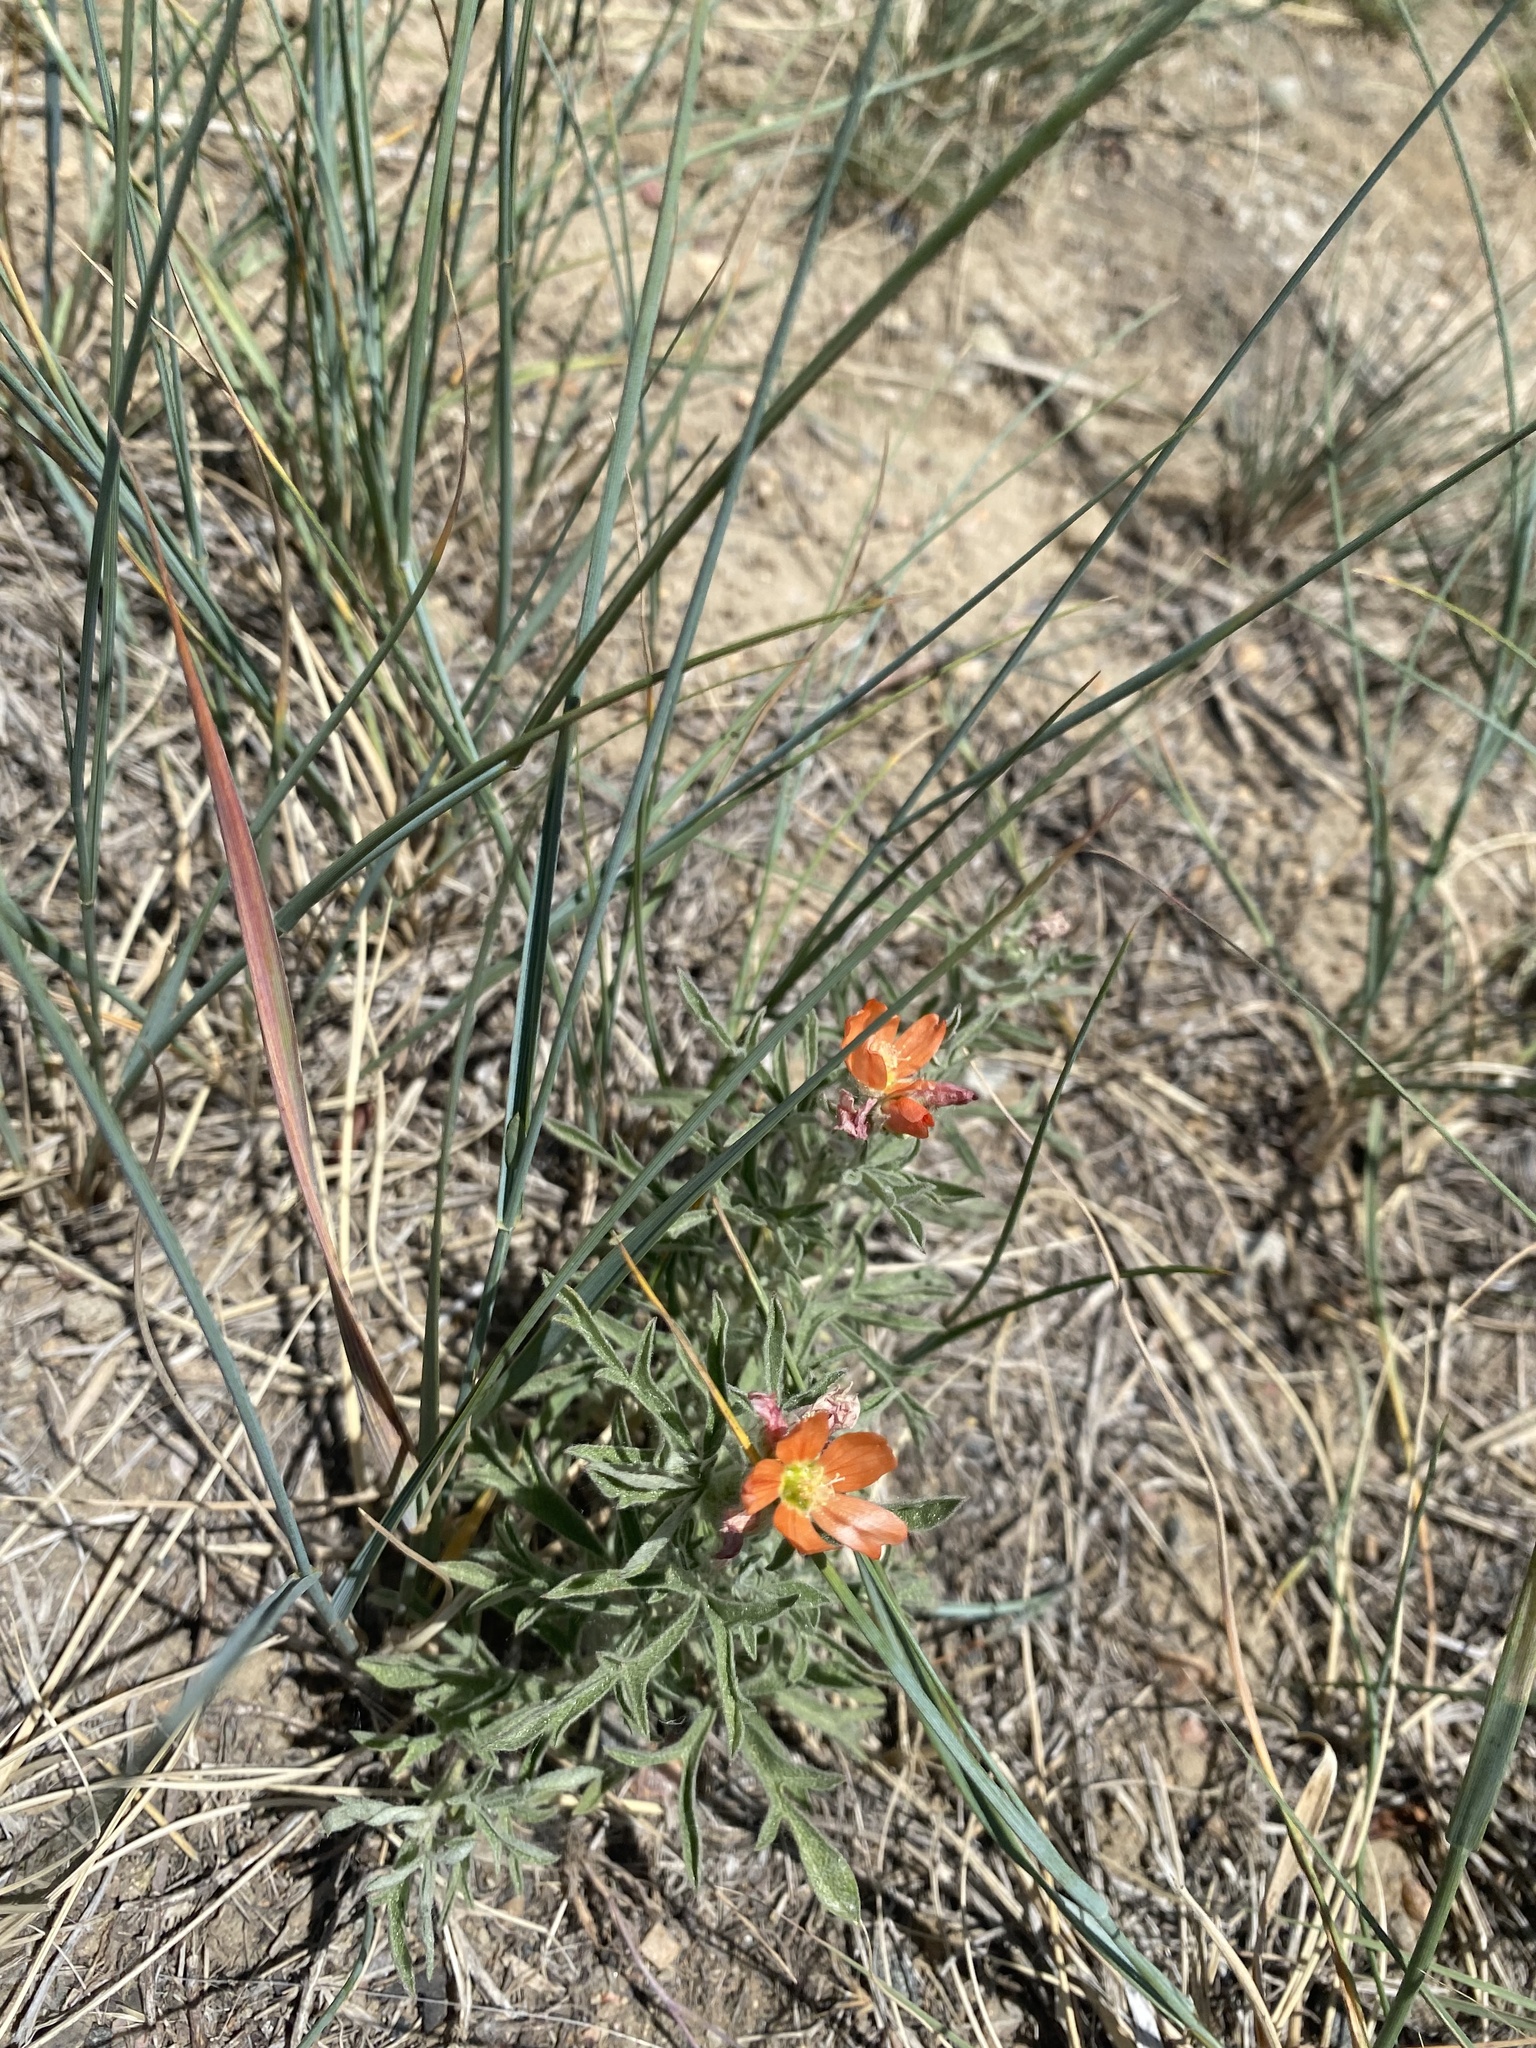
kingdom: Plantae
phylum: Tracheophyta
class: Magnoliopsida
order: Malvales
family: Malvaceae
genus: Sphaeralcea
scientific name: Sphaeralcea coccinea
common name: Moss-rose
